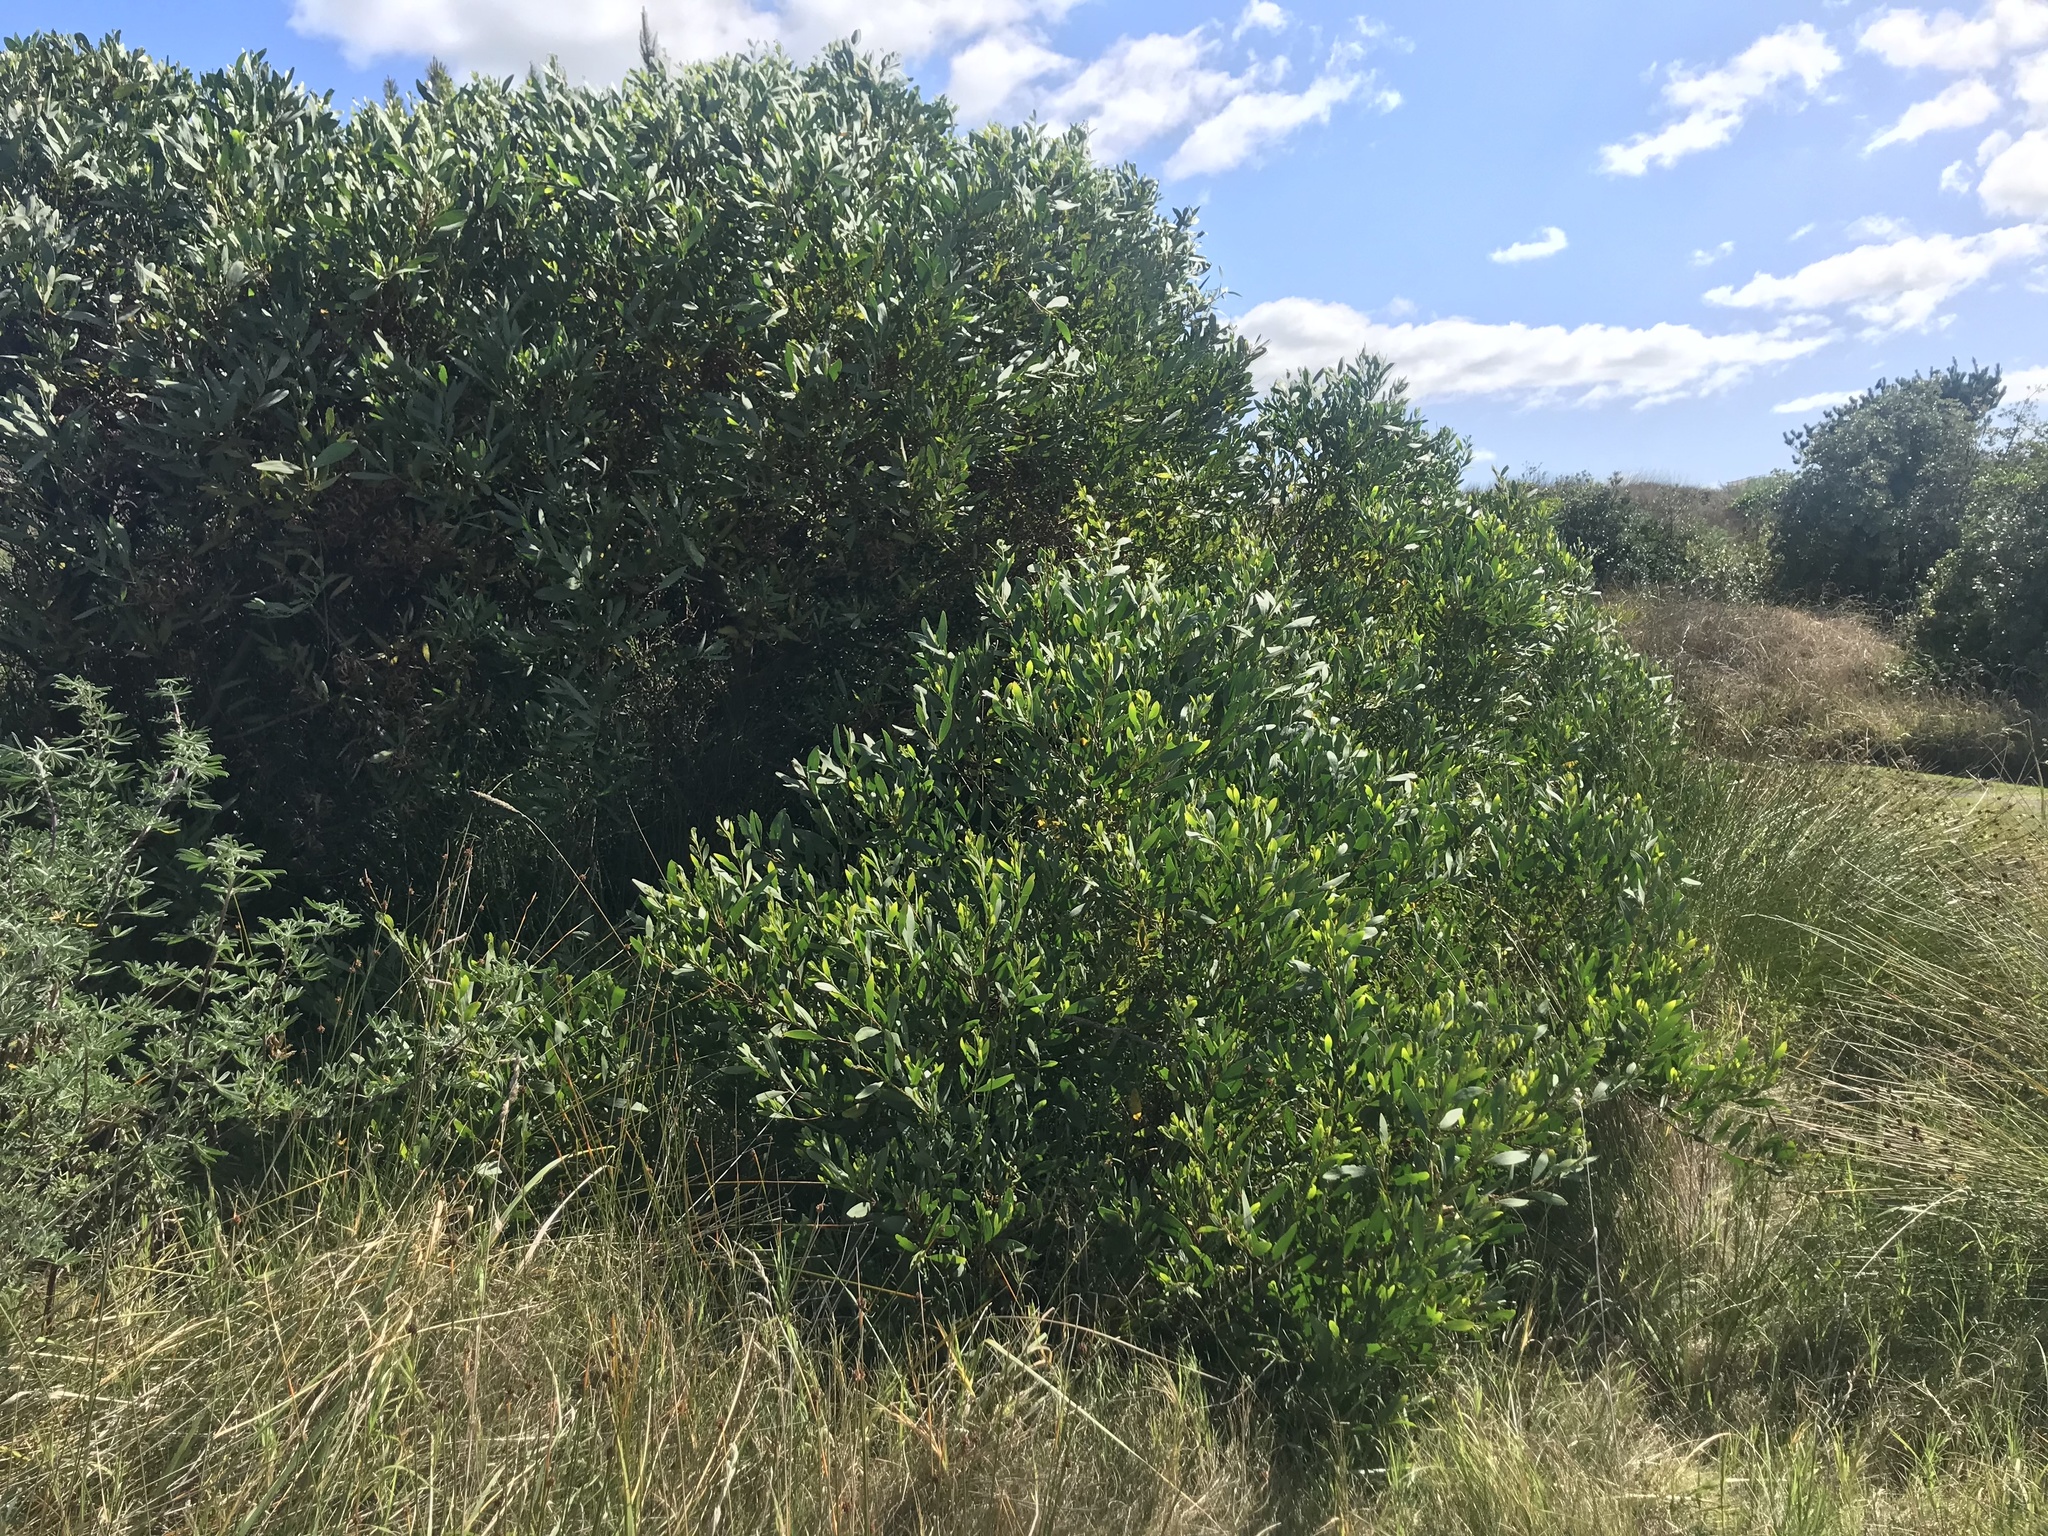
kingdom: Plantae
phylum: Tracheophyta
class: Magnoliopsida
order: Fabales
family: Fabaceae
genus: Acacia
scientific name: Acacia longifolia
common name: Sydney golden wattle
